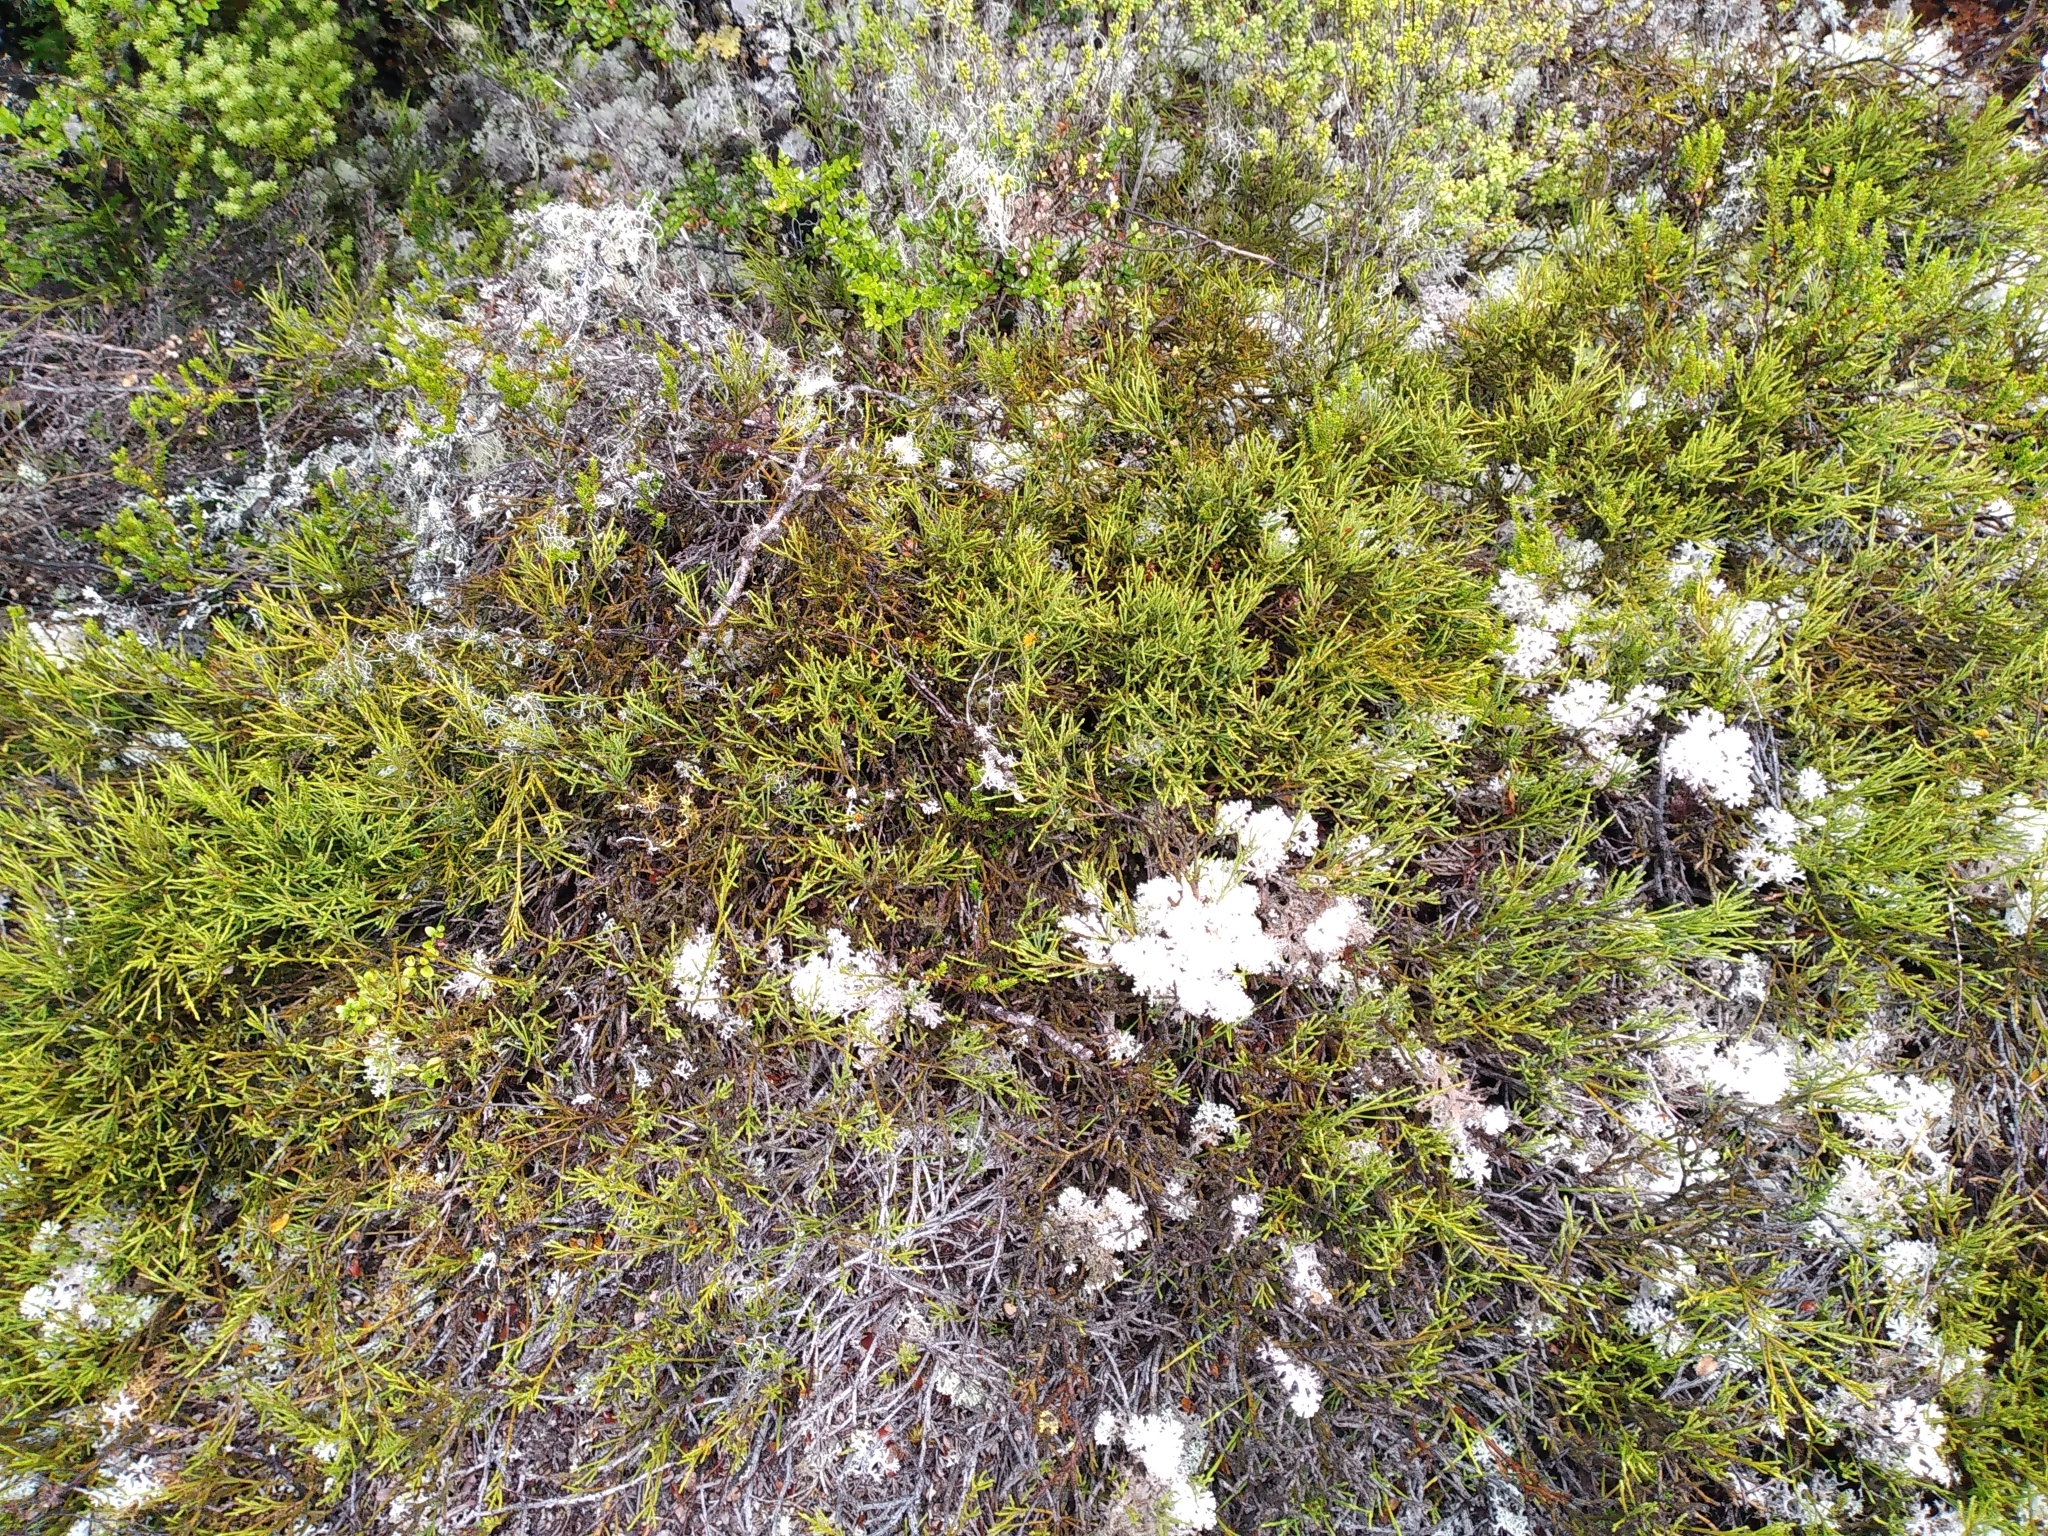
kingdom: Plantae
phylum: Tracheophyta
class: Magnoliopsida
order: Santalales
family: Santalaceae
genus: Exocarpos
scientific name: Exocarpos bidwillii
